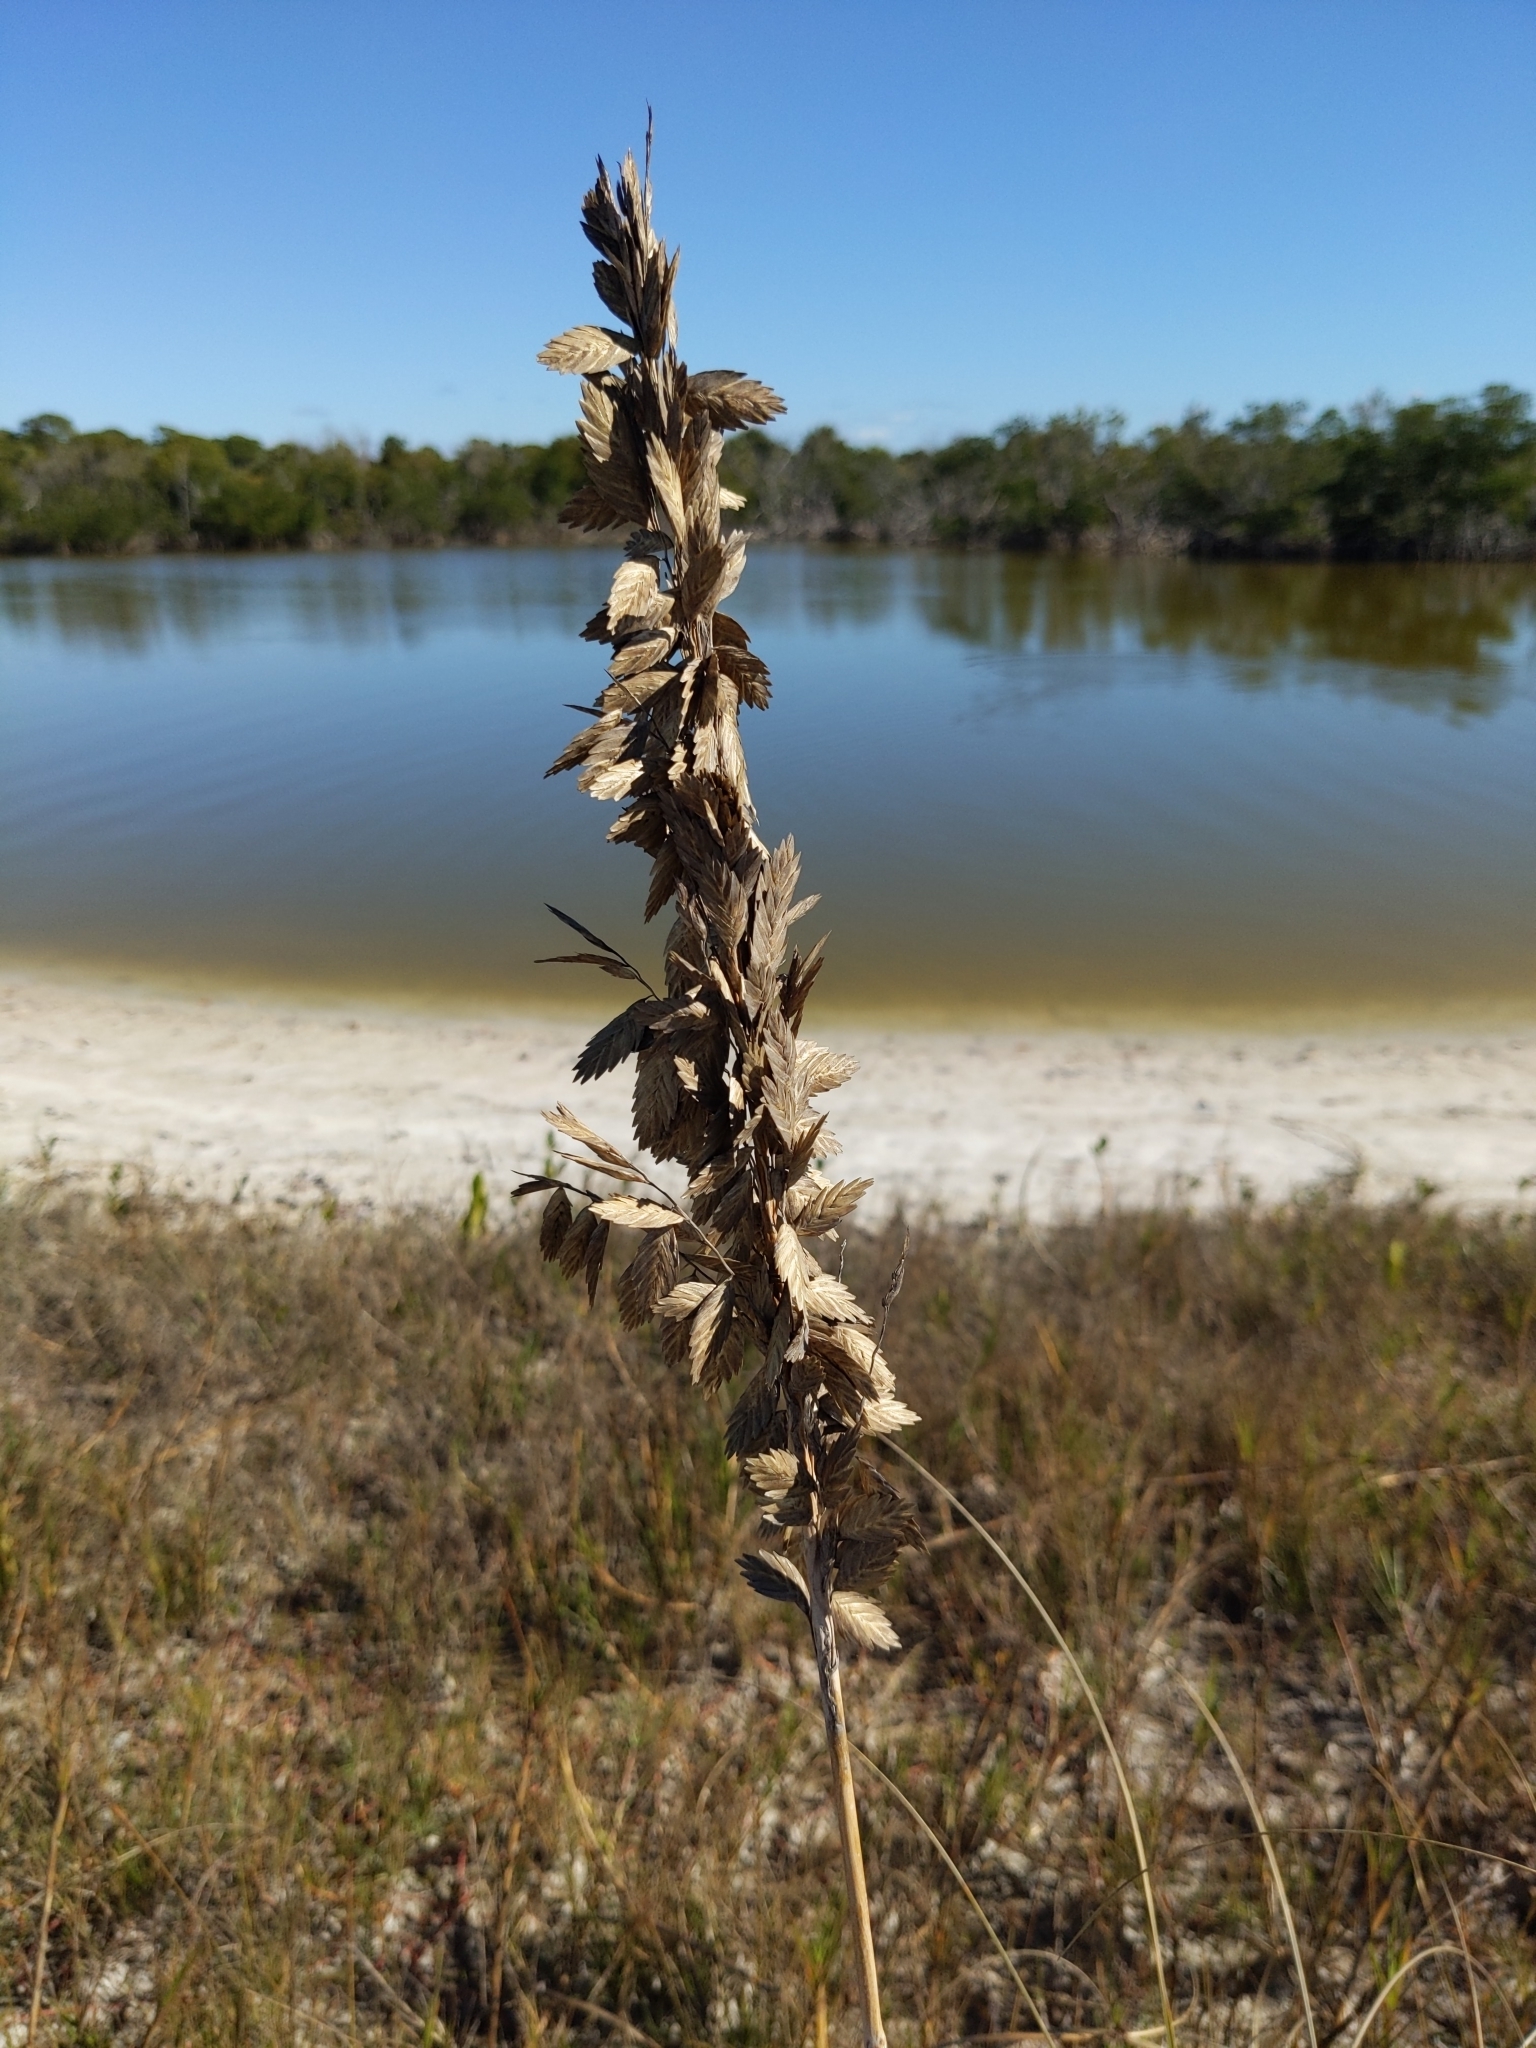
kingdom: Plantae
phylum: Tracheophyta
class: Liliopsida
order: Poales
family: Poaceae
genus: Uniola
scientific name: Uniola paniculata
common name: Seaside-oats
